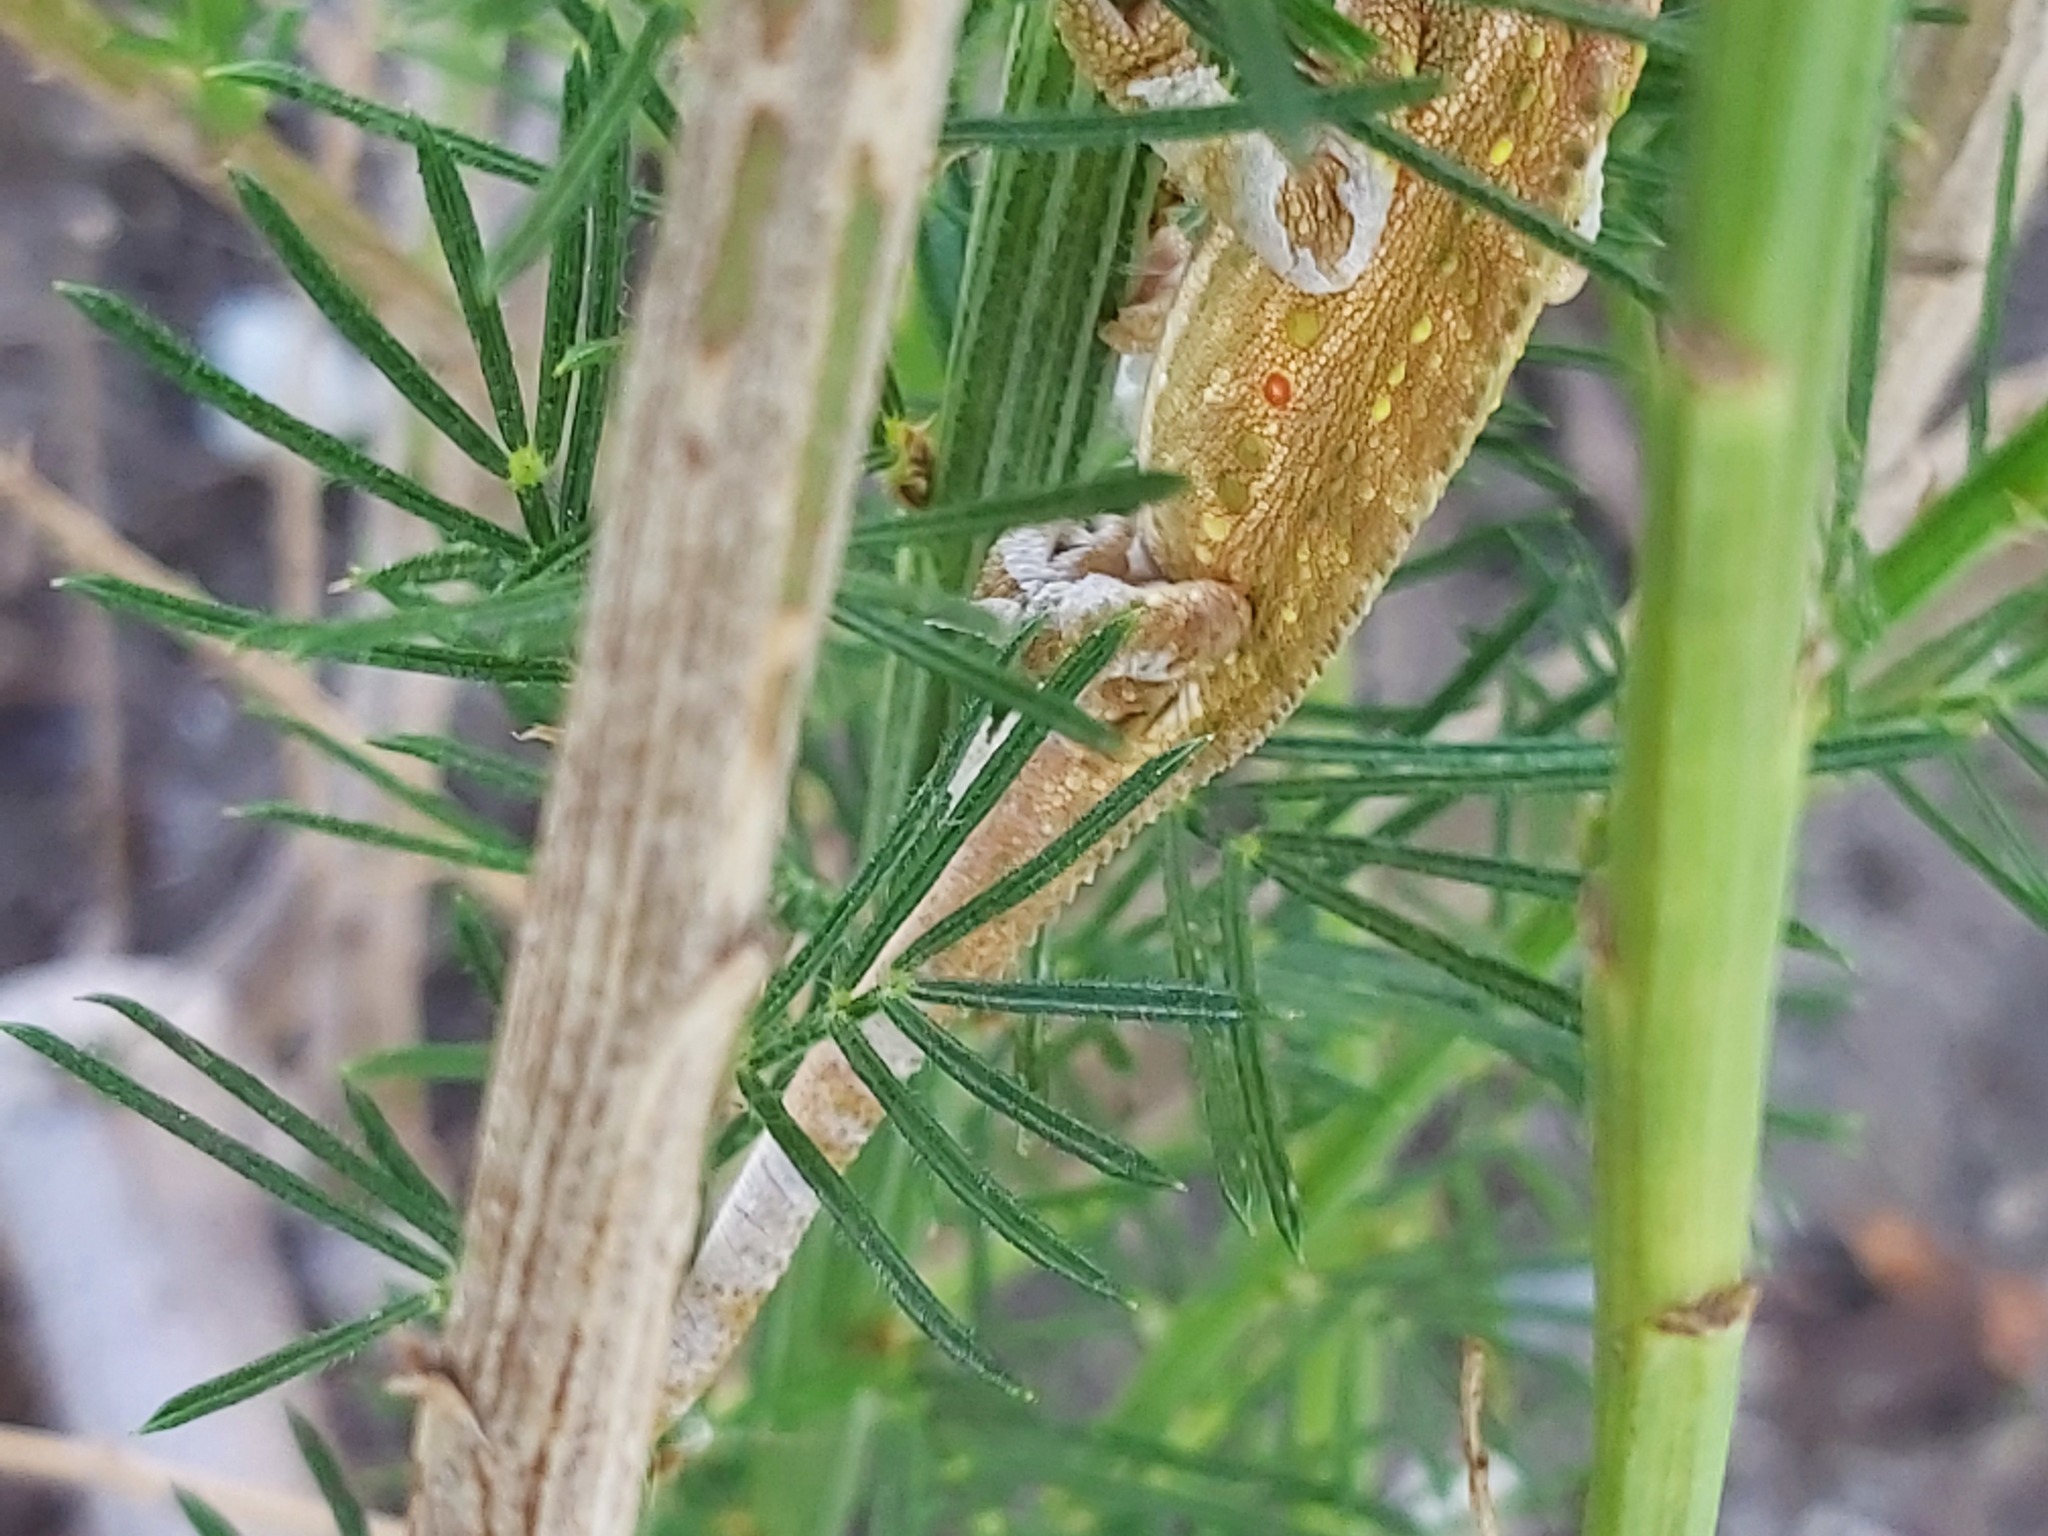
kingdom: Animalia
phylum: Chordata
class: Squamata
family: Chamaeleonidae
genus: Bradypodion
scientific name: Bradypodion pumilum
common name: Cape dwarf chameleon
